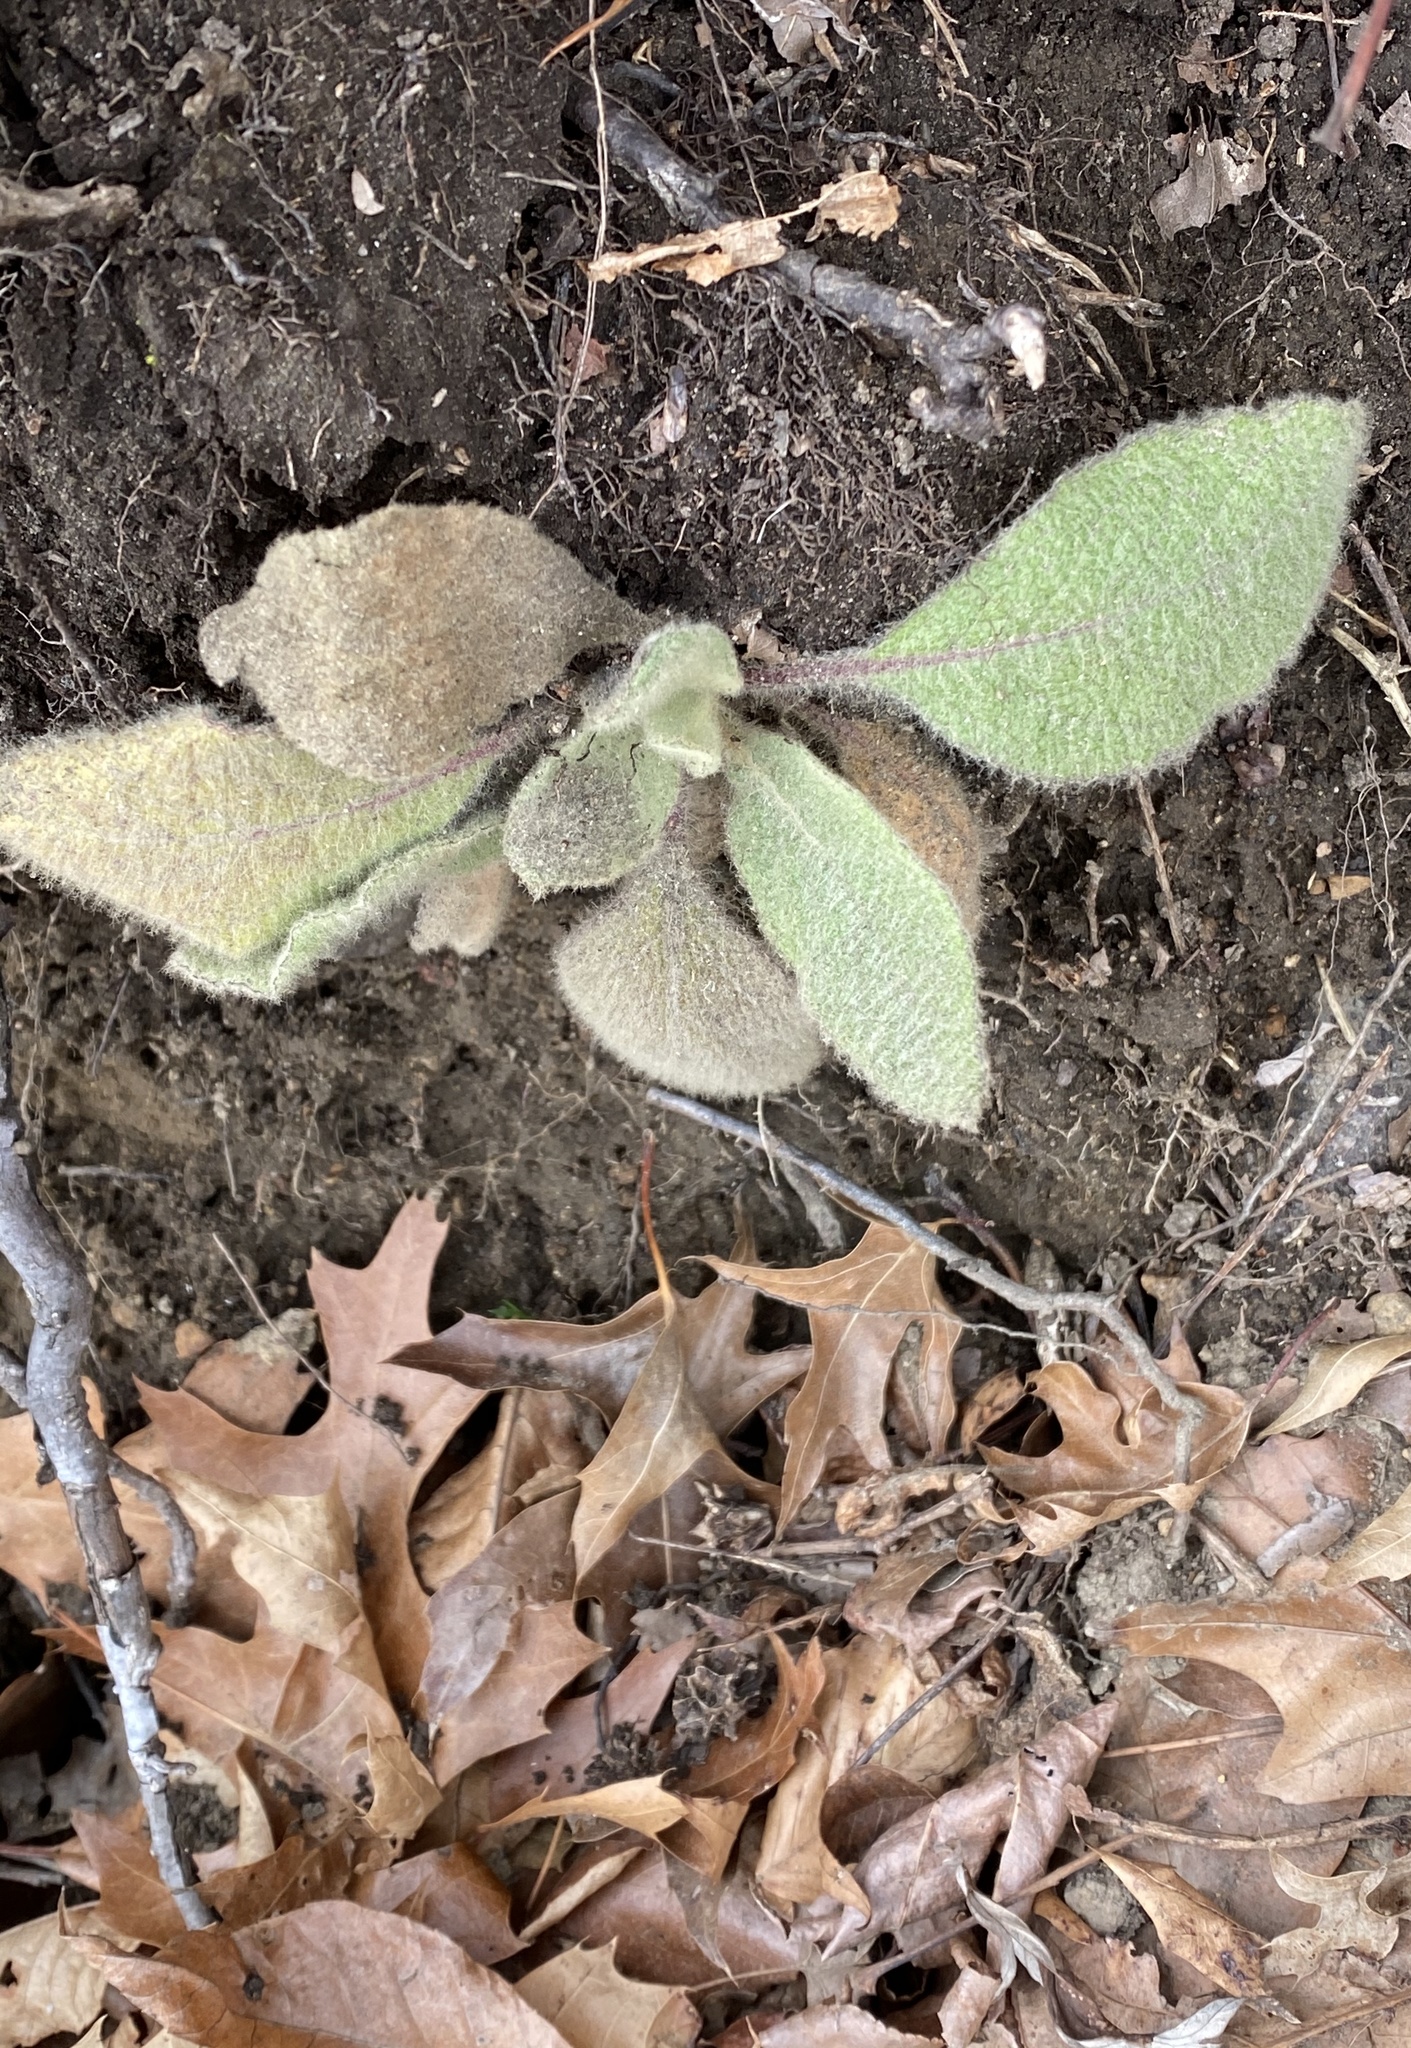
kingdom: Plantae
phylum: Tracheophyta
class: Magnoliopsida
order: Lamiales
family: Scrophulariaceae
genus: Verbascum
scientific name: Verbascum thapsus
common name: Common mullein
